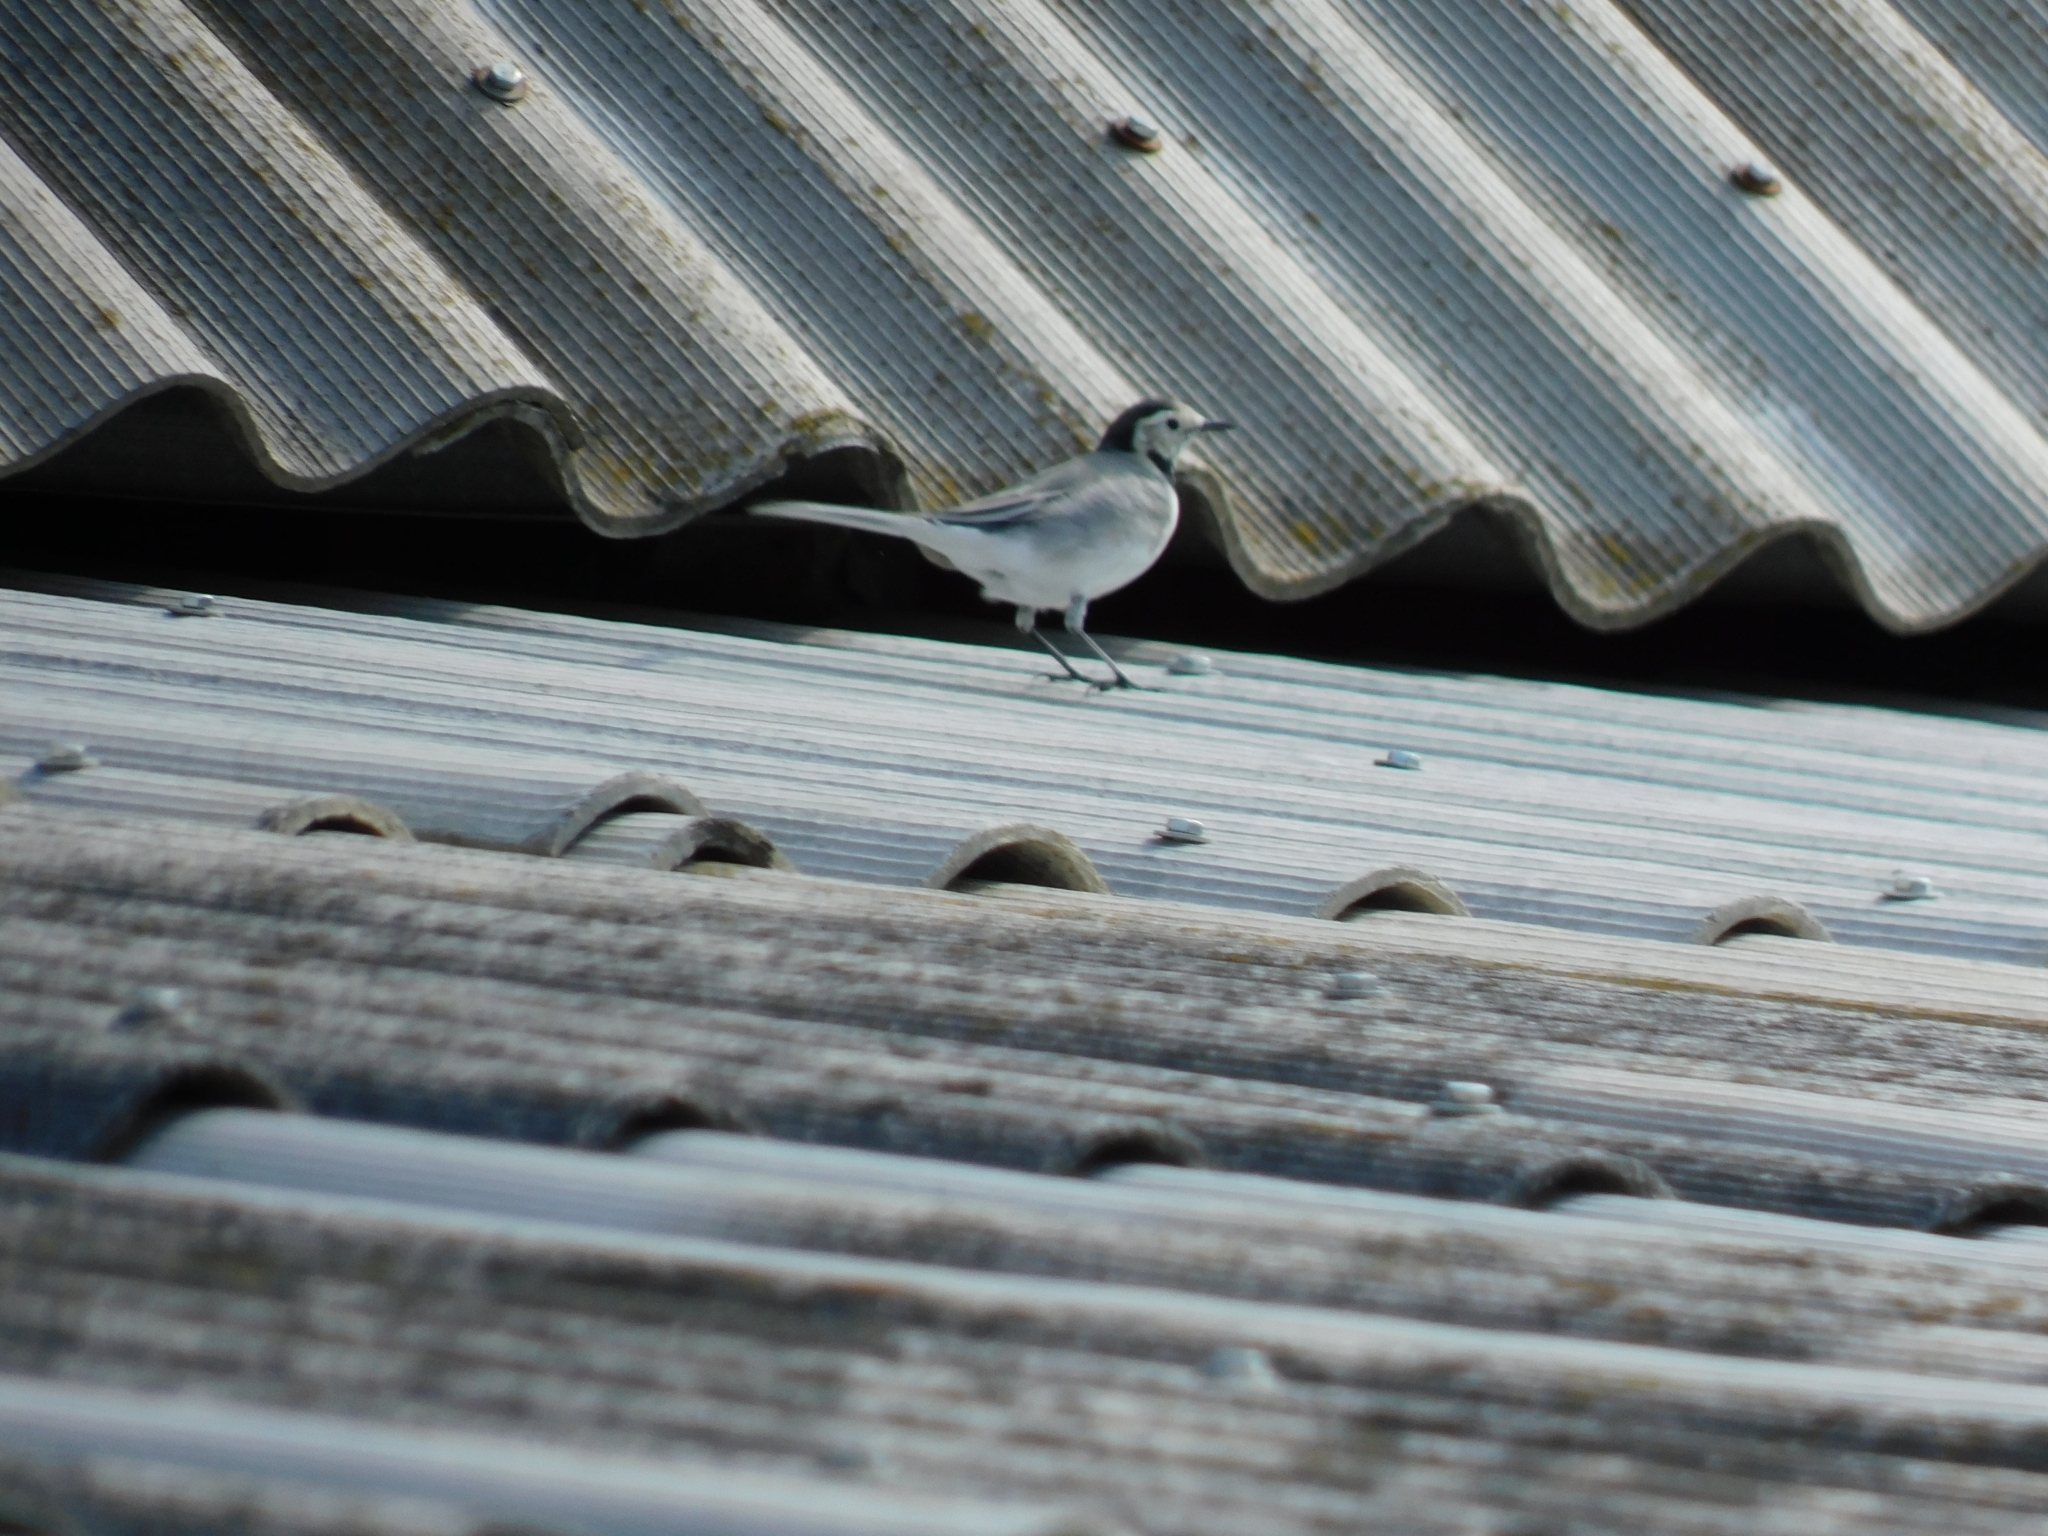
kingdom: Animalia
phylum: Chordata
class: Aves
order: Passeriformes
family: Motacillidae
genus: Motacilla
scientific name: Motacilla alba
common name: White wagtail
